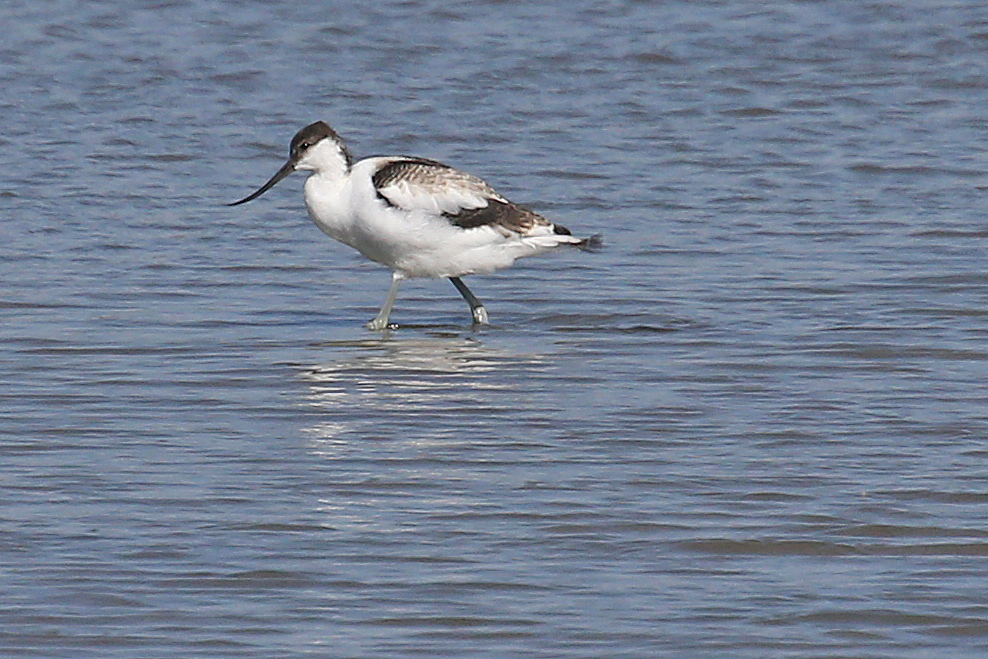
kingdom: Animalia
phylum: Chordata
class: Aves
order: Charadriiformes
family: Recurvirostridae
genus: Recurvirostra
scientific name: Recurvirostra avosetta
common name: Pied avocet
